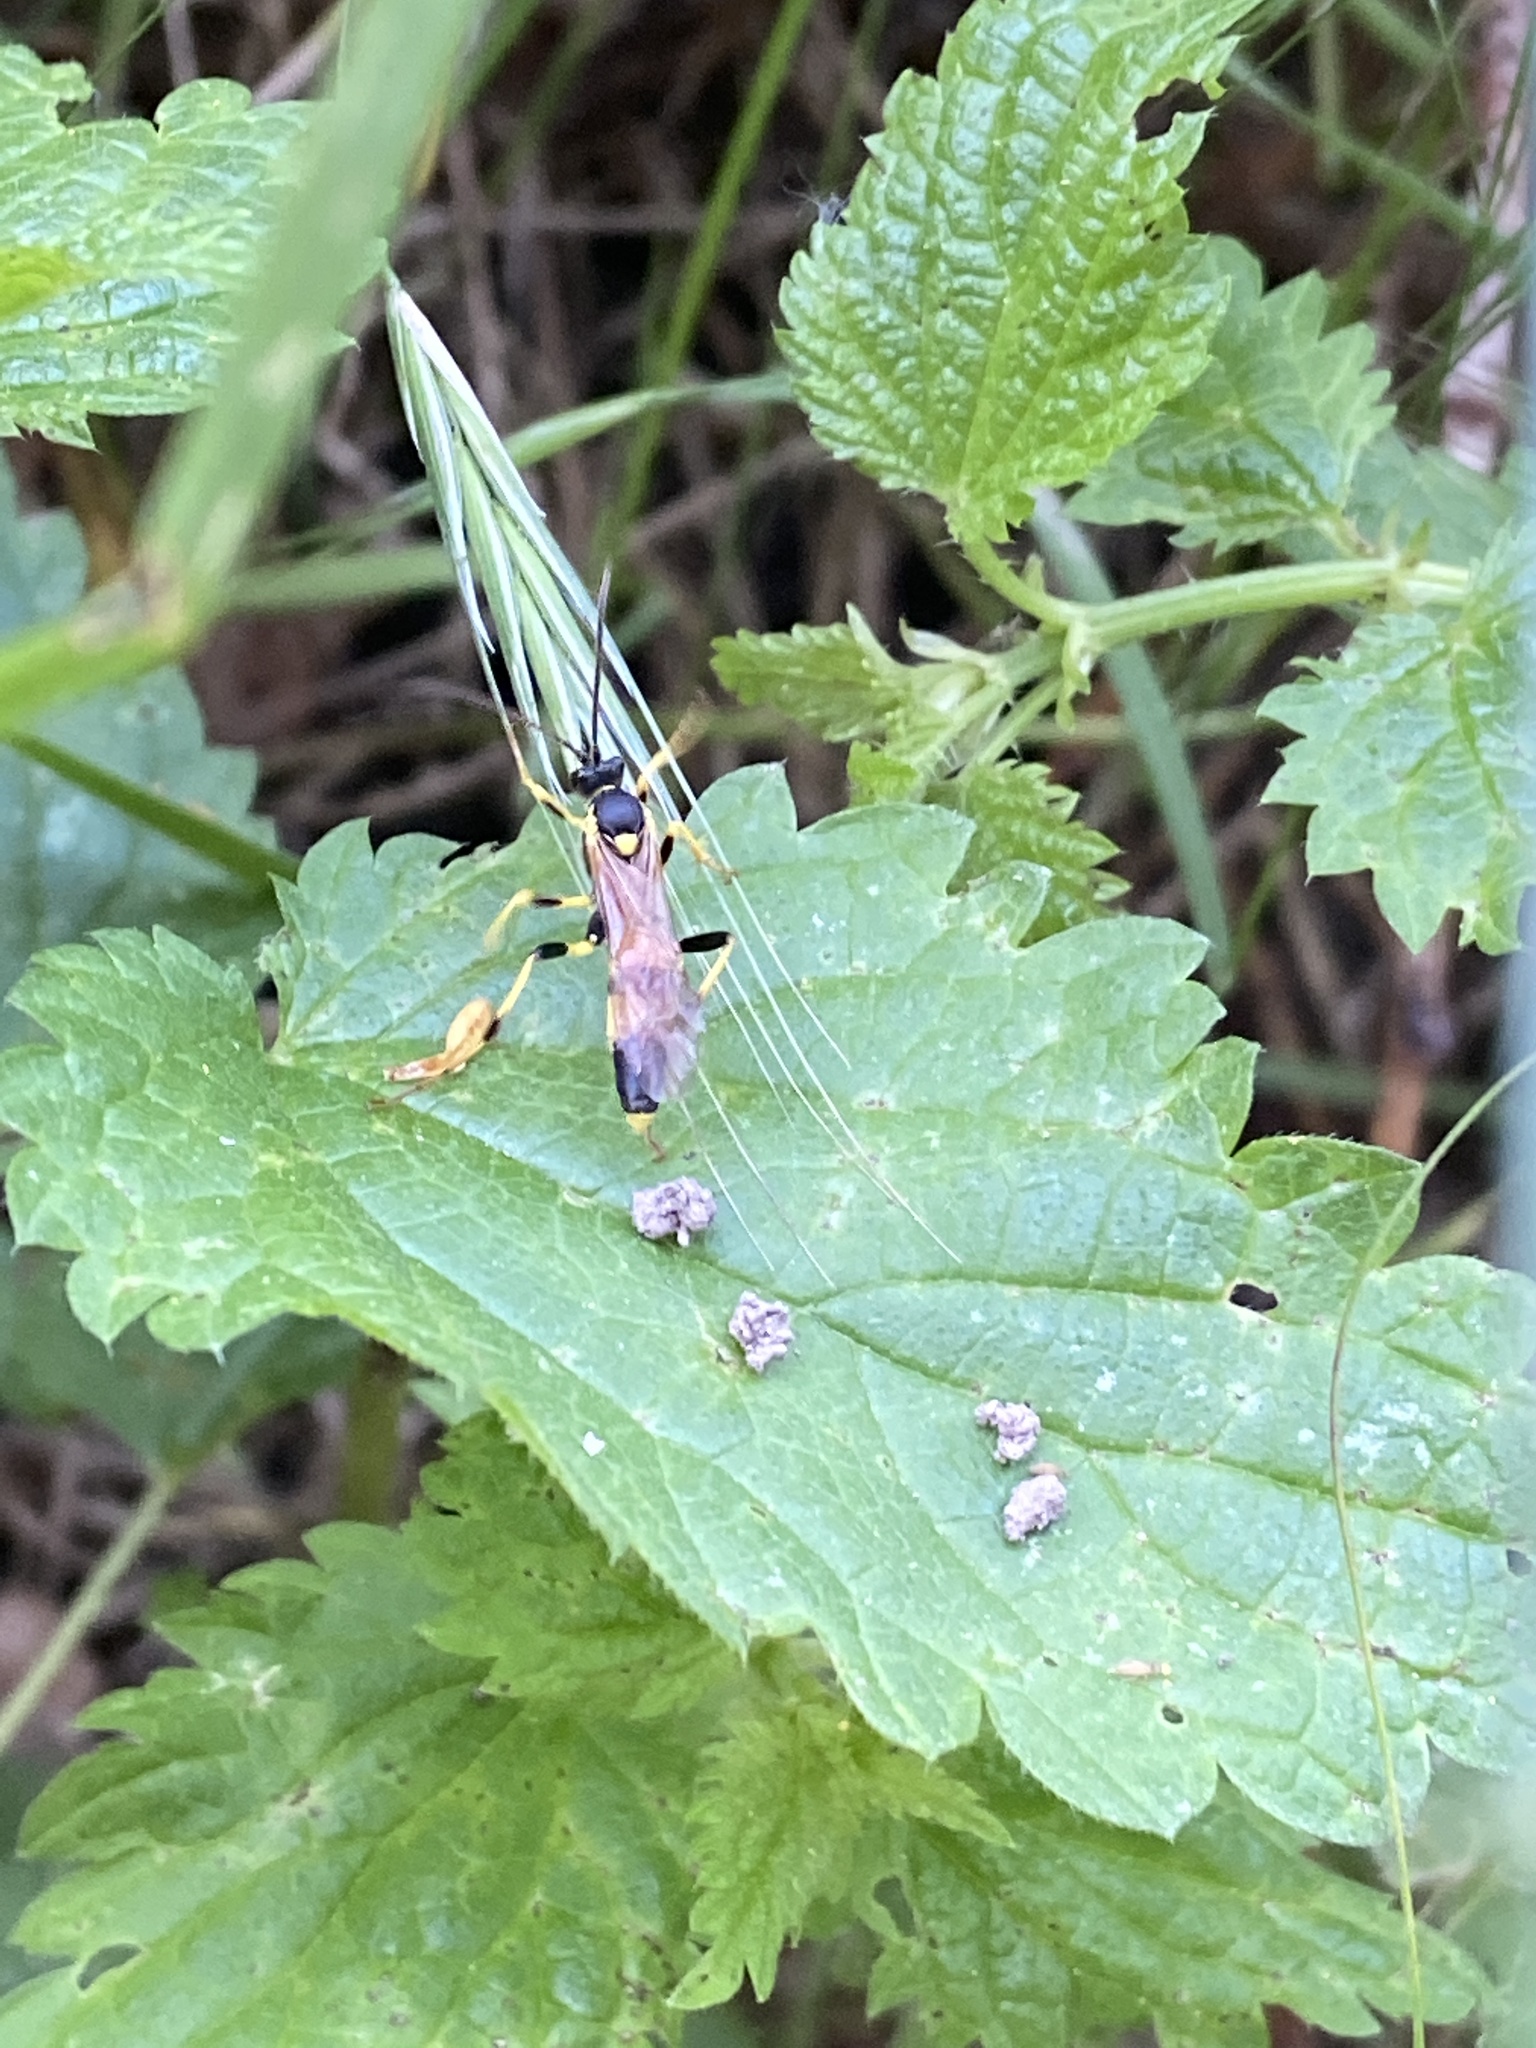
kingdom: Animalia
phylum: Arthropoda
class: Insecta
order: Hymenoptera
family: Ichneumonidae
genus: Amblyteles
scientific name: Amblyteles armatorius
